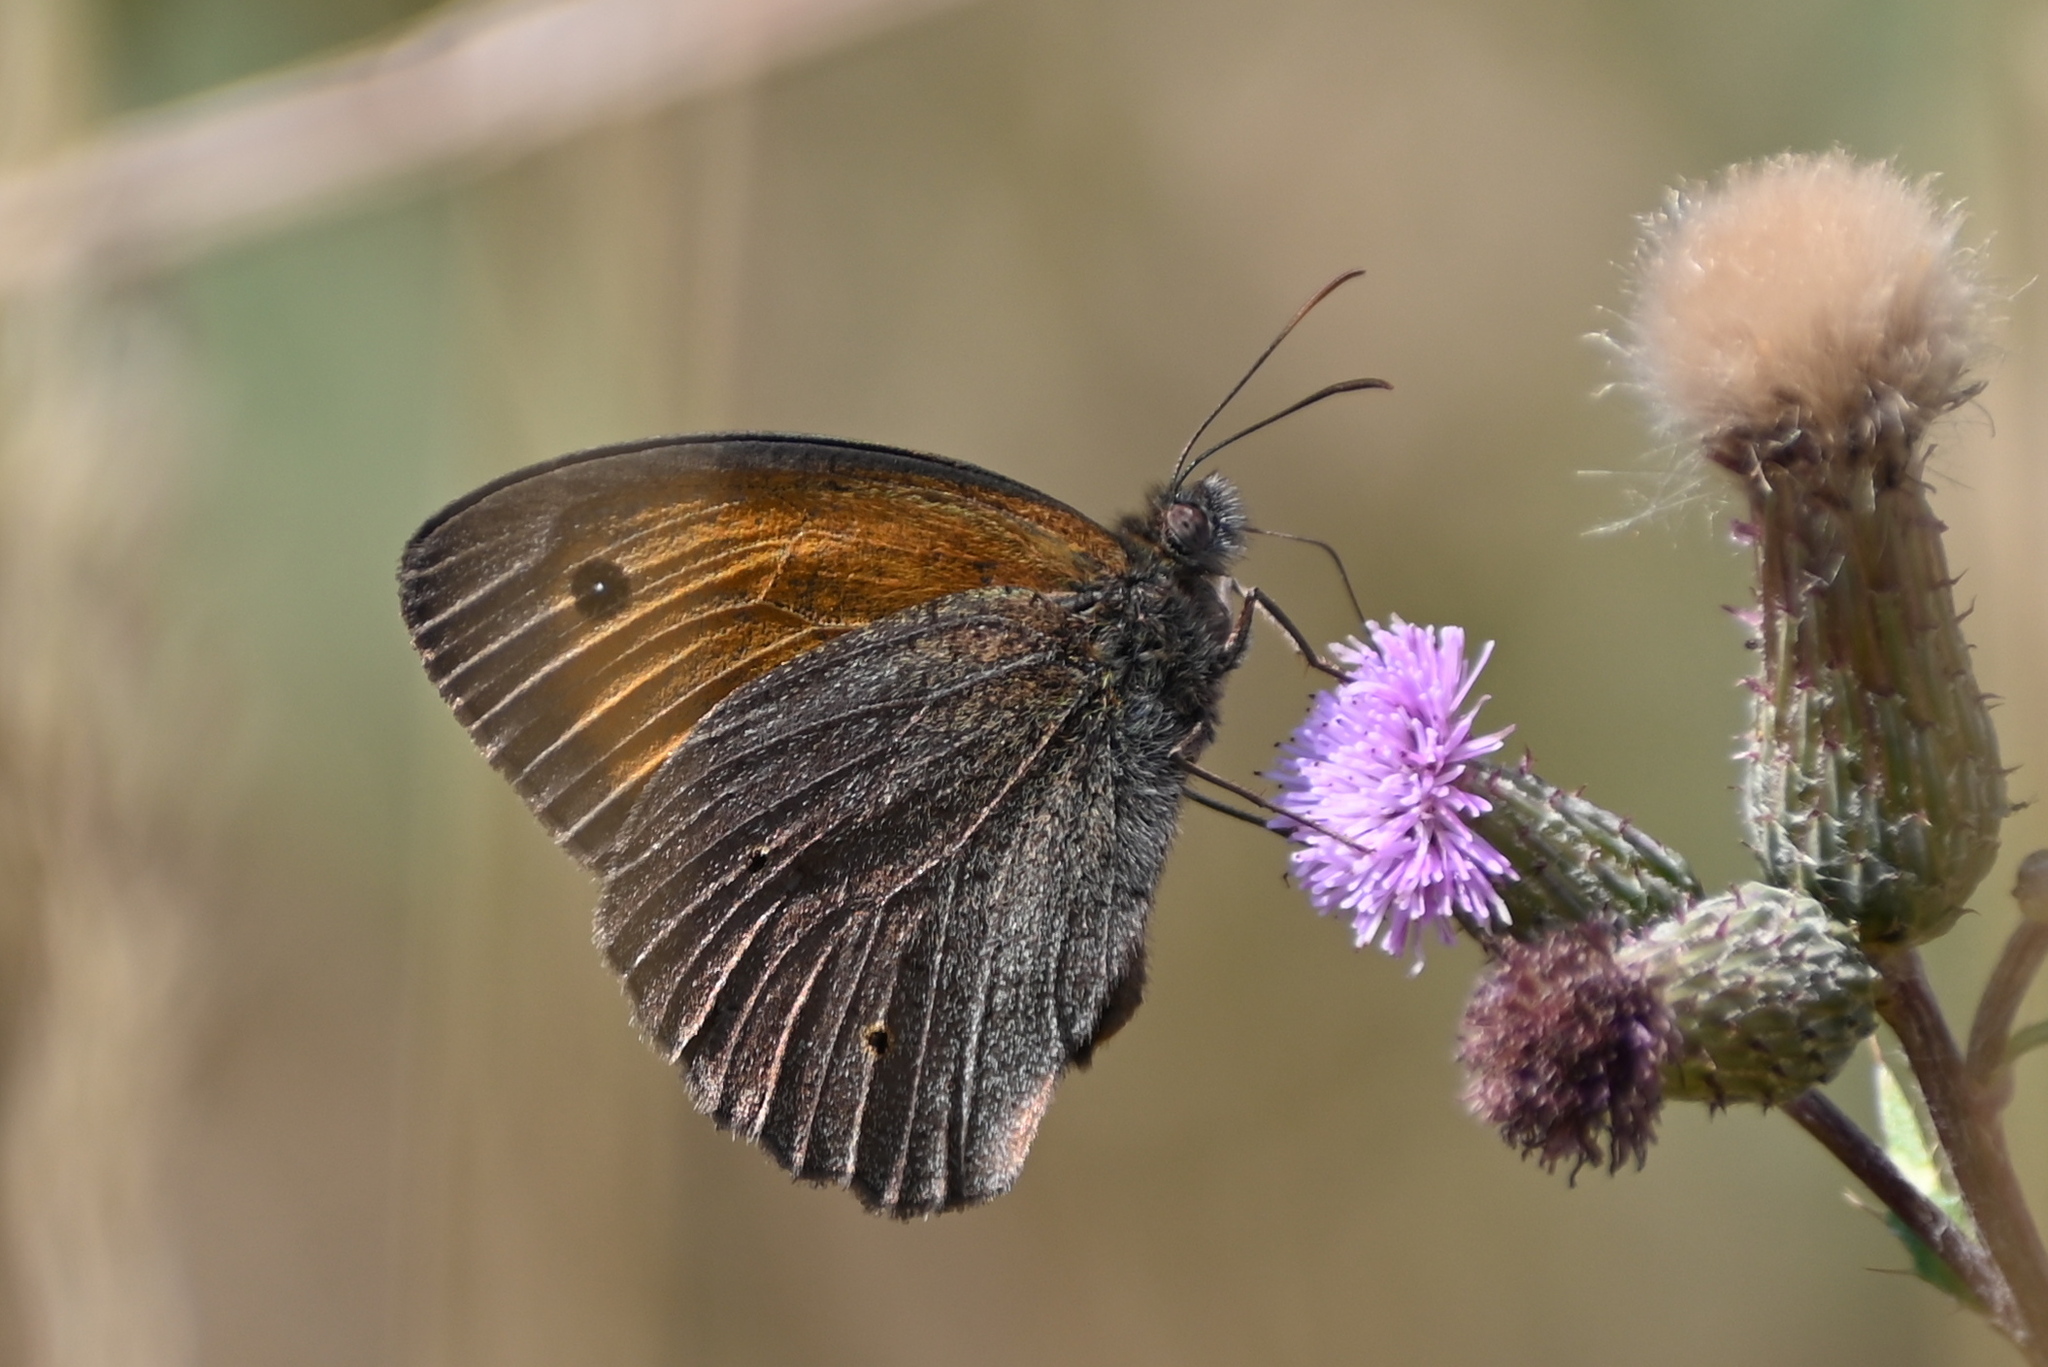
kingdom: Animalia
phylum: Arthropoda
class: Insecta
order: Lepidoptera
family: Nymphalidae
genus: Maniola
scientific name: Maniola jurtina
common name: Meadow brown
